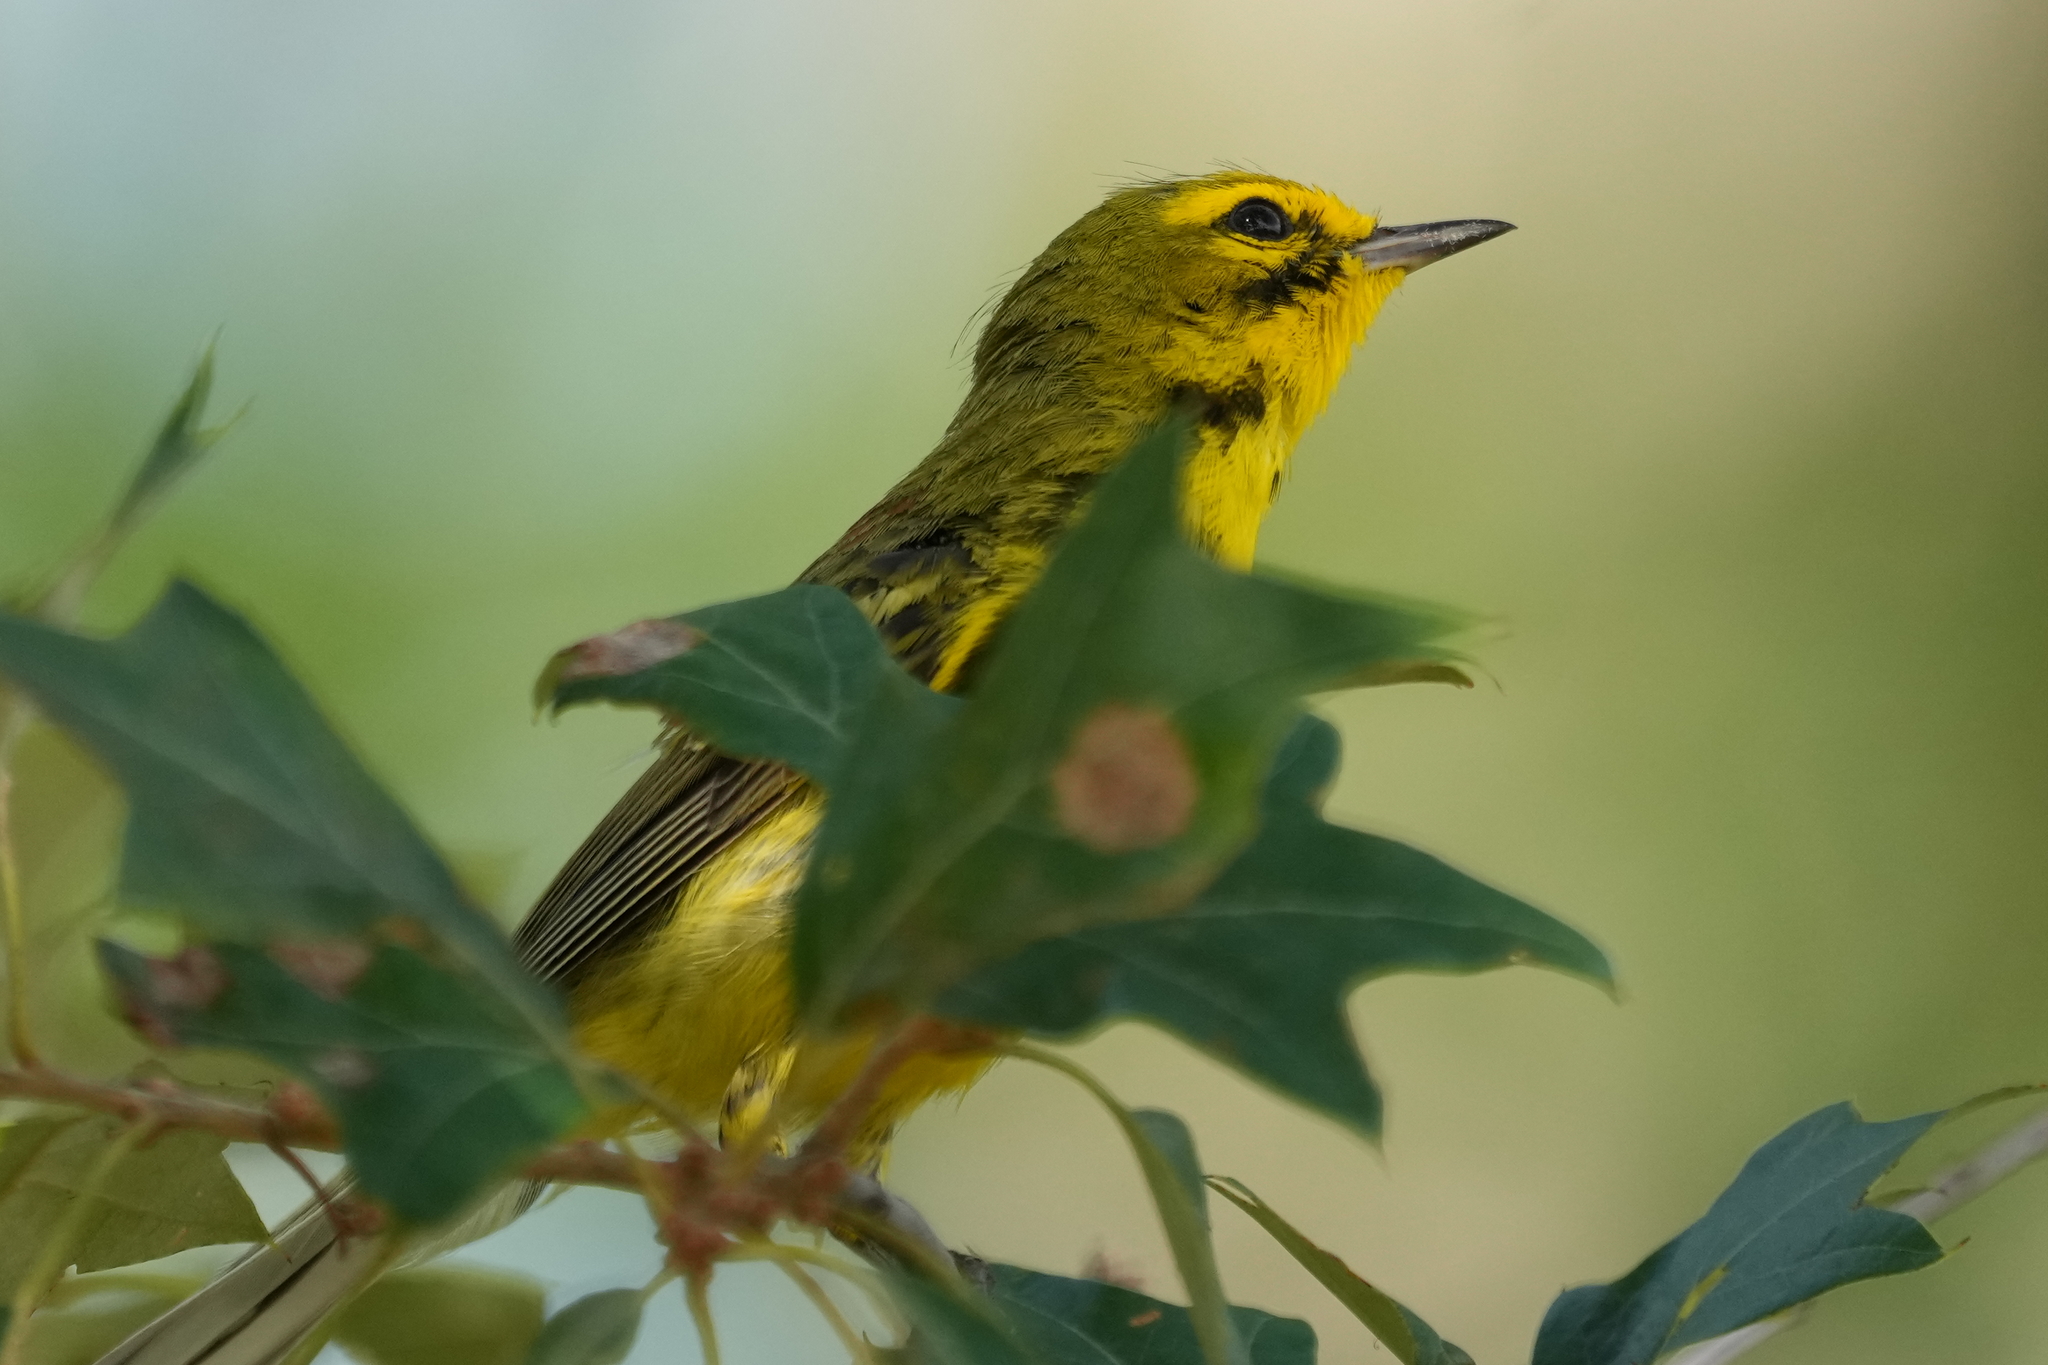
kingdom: Animalia
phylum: Chordata
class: Aves
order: Passeriformes
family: Parulidae
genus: Setophaga
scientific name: Setophaga discolor
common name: Prairie warbler
